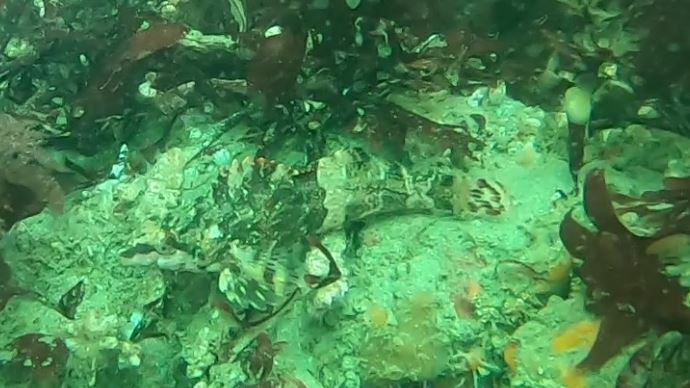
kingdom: Animalia
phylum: Chordata
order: Scorpaeniformes
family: Hexagrammidae
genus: Oxylebius
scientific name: Oxylebius pictus
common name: Painted greenling
